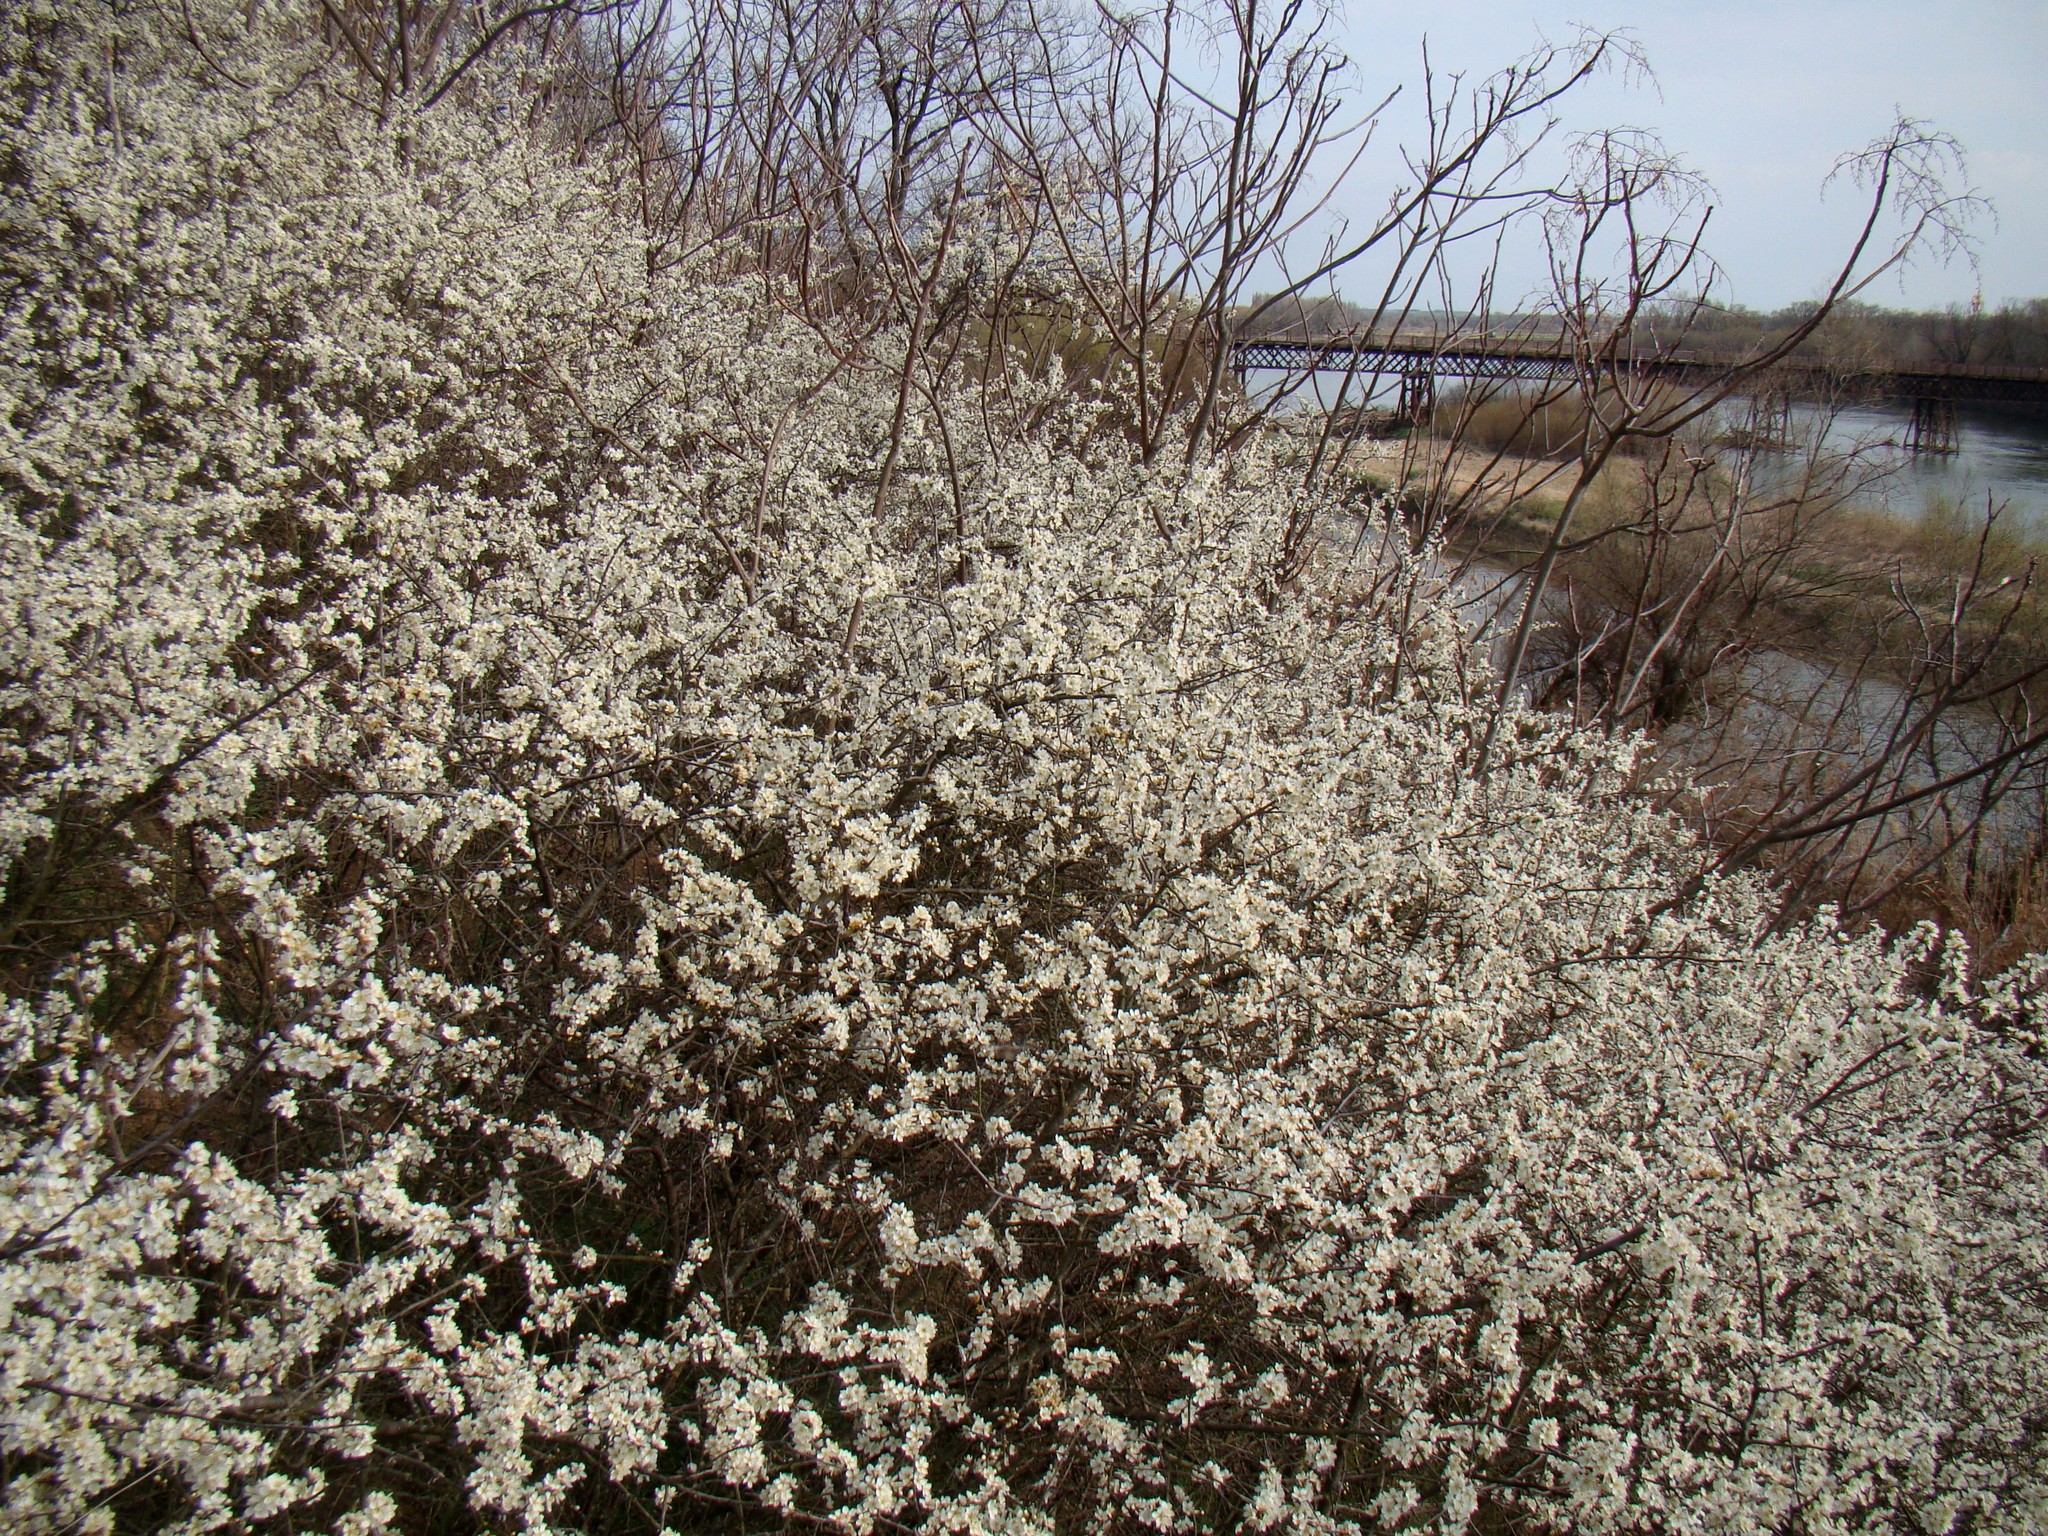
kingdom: Plantae
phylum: Tracheophyta
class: Magnoliopsida
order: Rosales
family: Rosaceae
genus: Prunus
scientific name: Prunus spinosa
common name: Blackthorn
